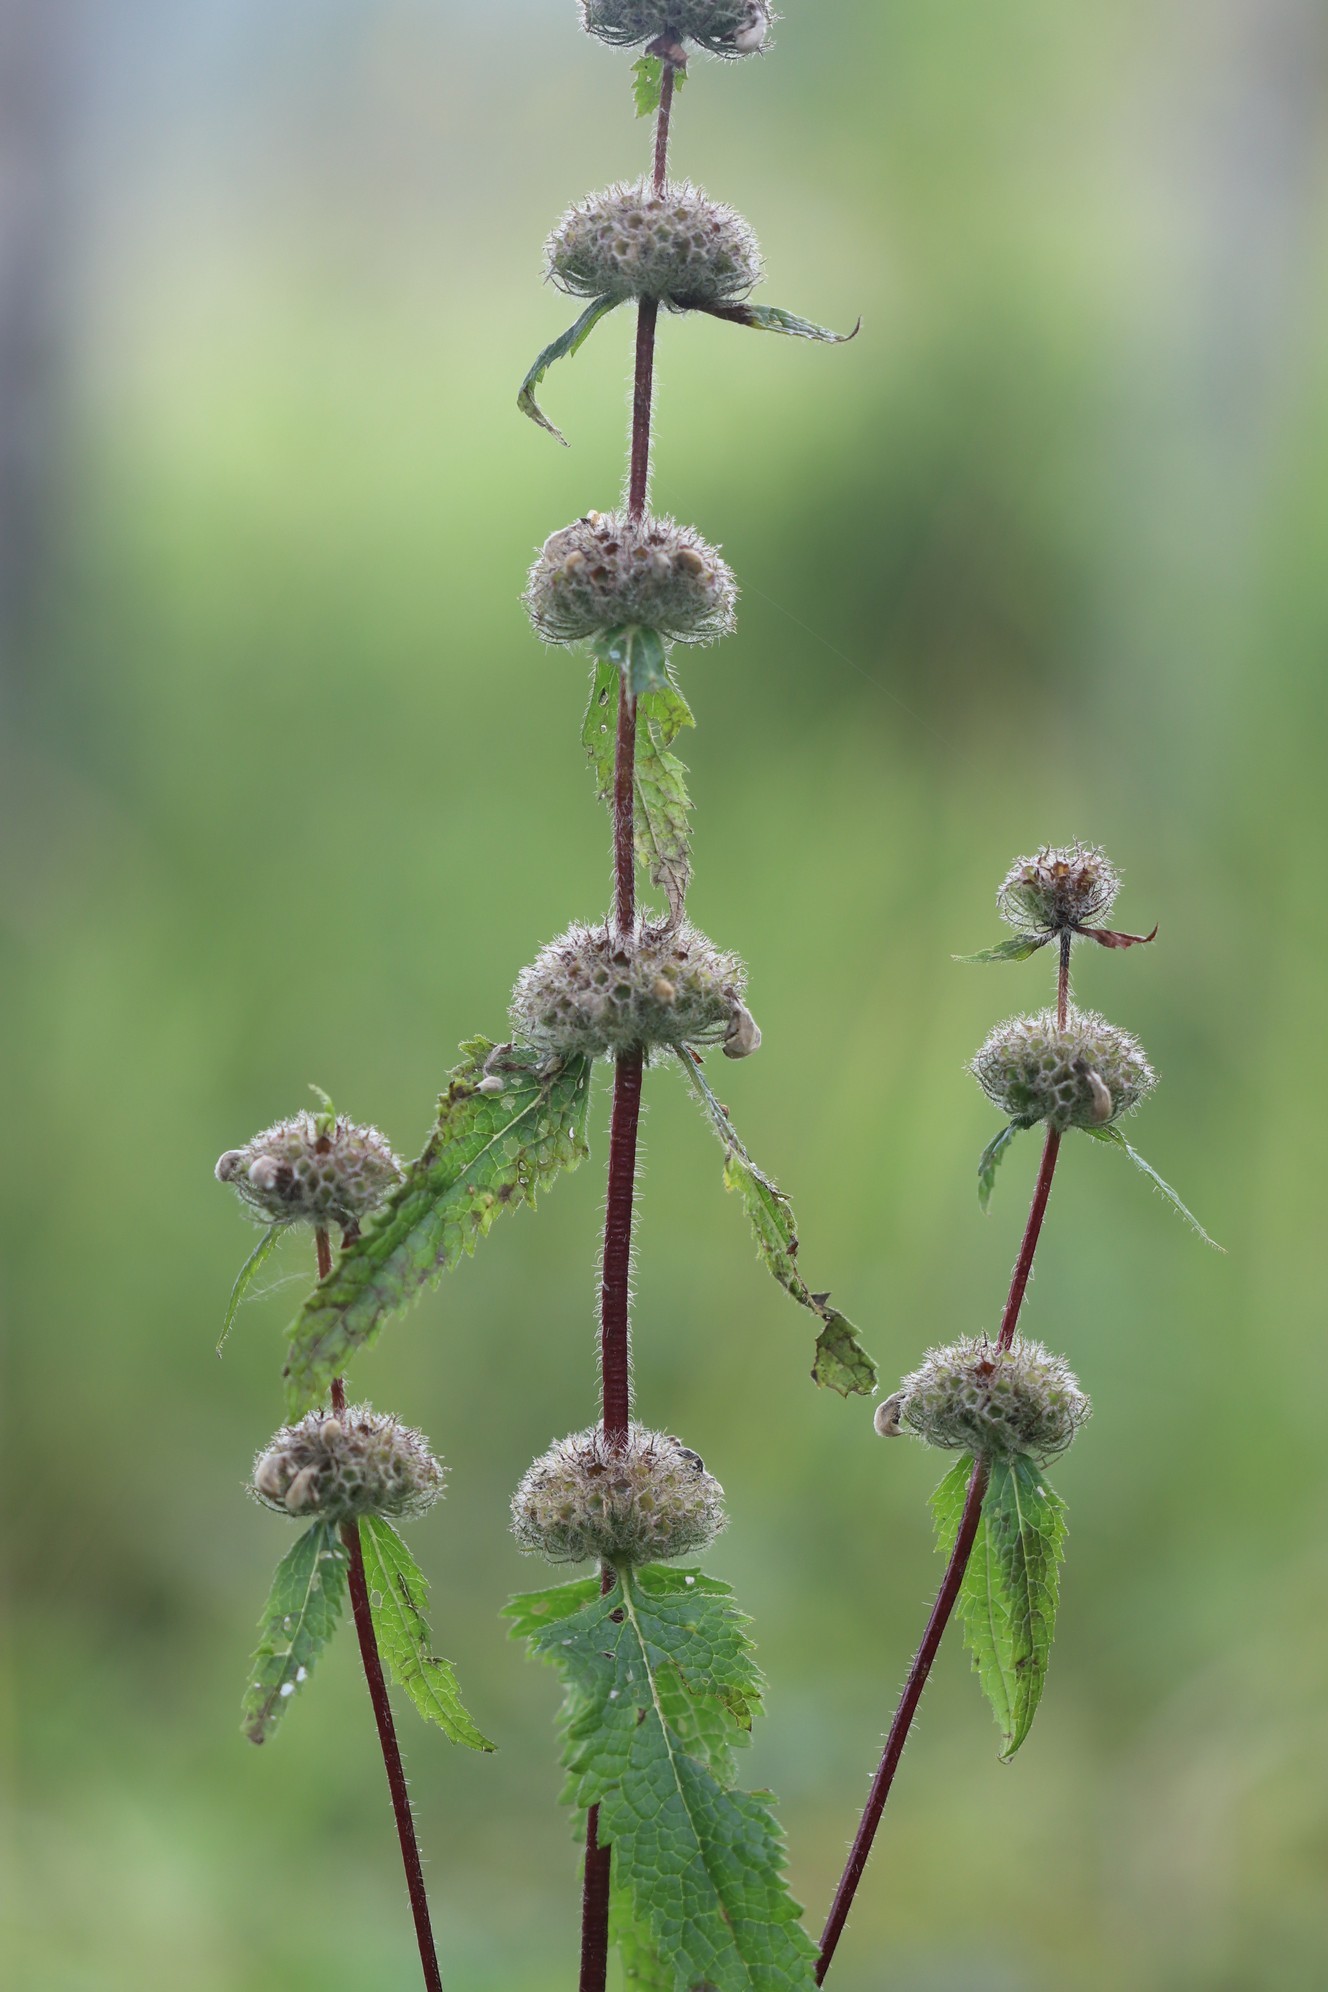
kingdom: Plantae
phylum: Tracheophyta
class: Magnoliopsida
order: Lamiales
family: Lamiaceae
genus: Phlomoides
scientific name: Phlomoides tuberosa
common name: Tuberous jerusalem sage
